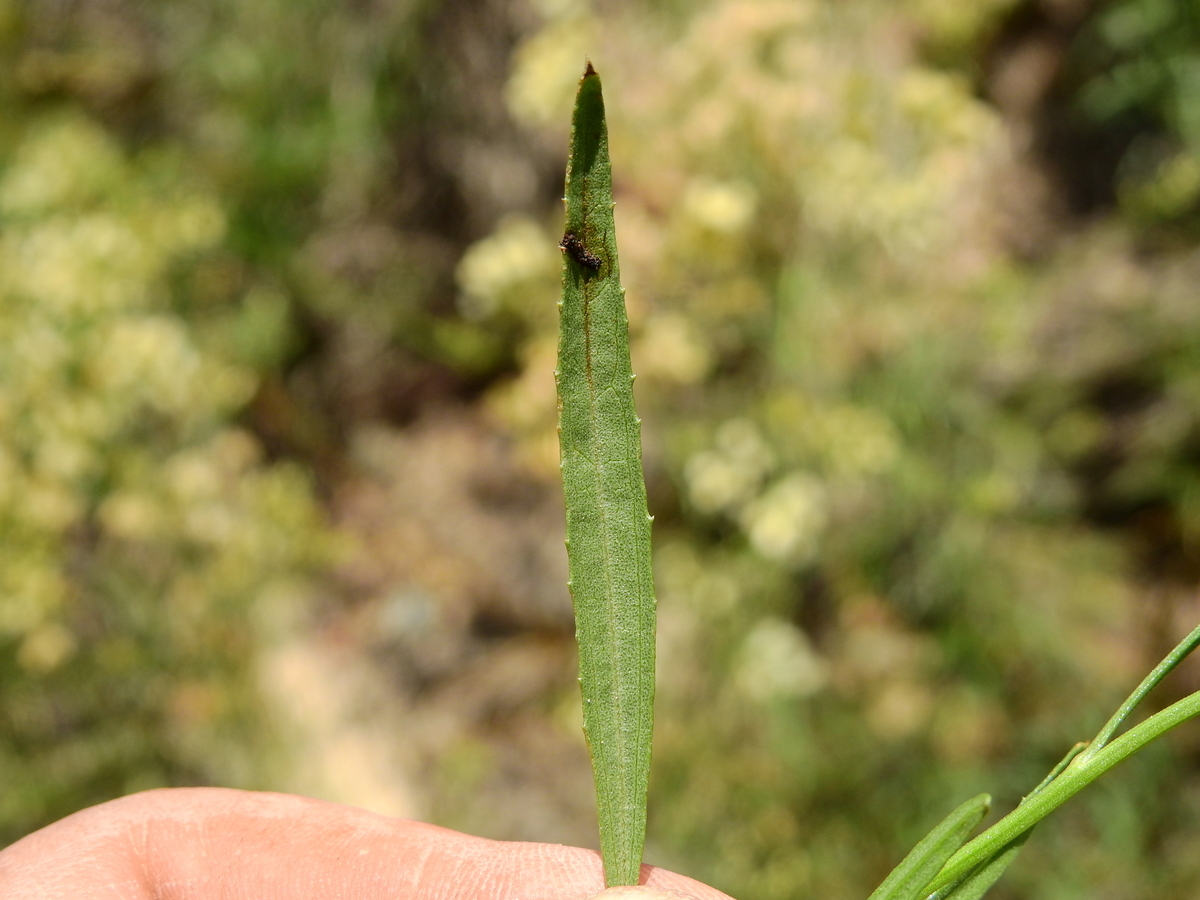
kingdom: Plantae
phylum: Tracheophyta
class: Magnoliopsida
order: Asterales
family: Asteraceae
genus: Baccharis
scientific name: Baccharis glutinosa
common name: Saltmarsh baccharis
